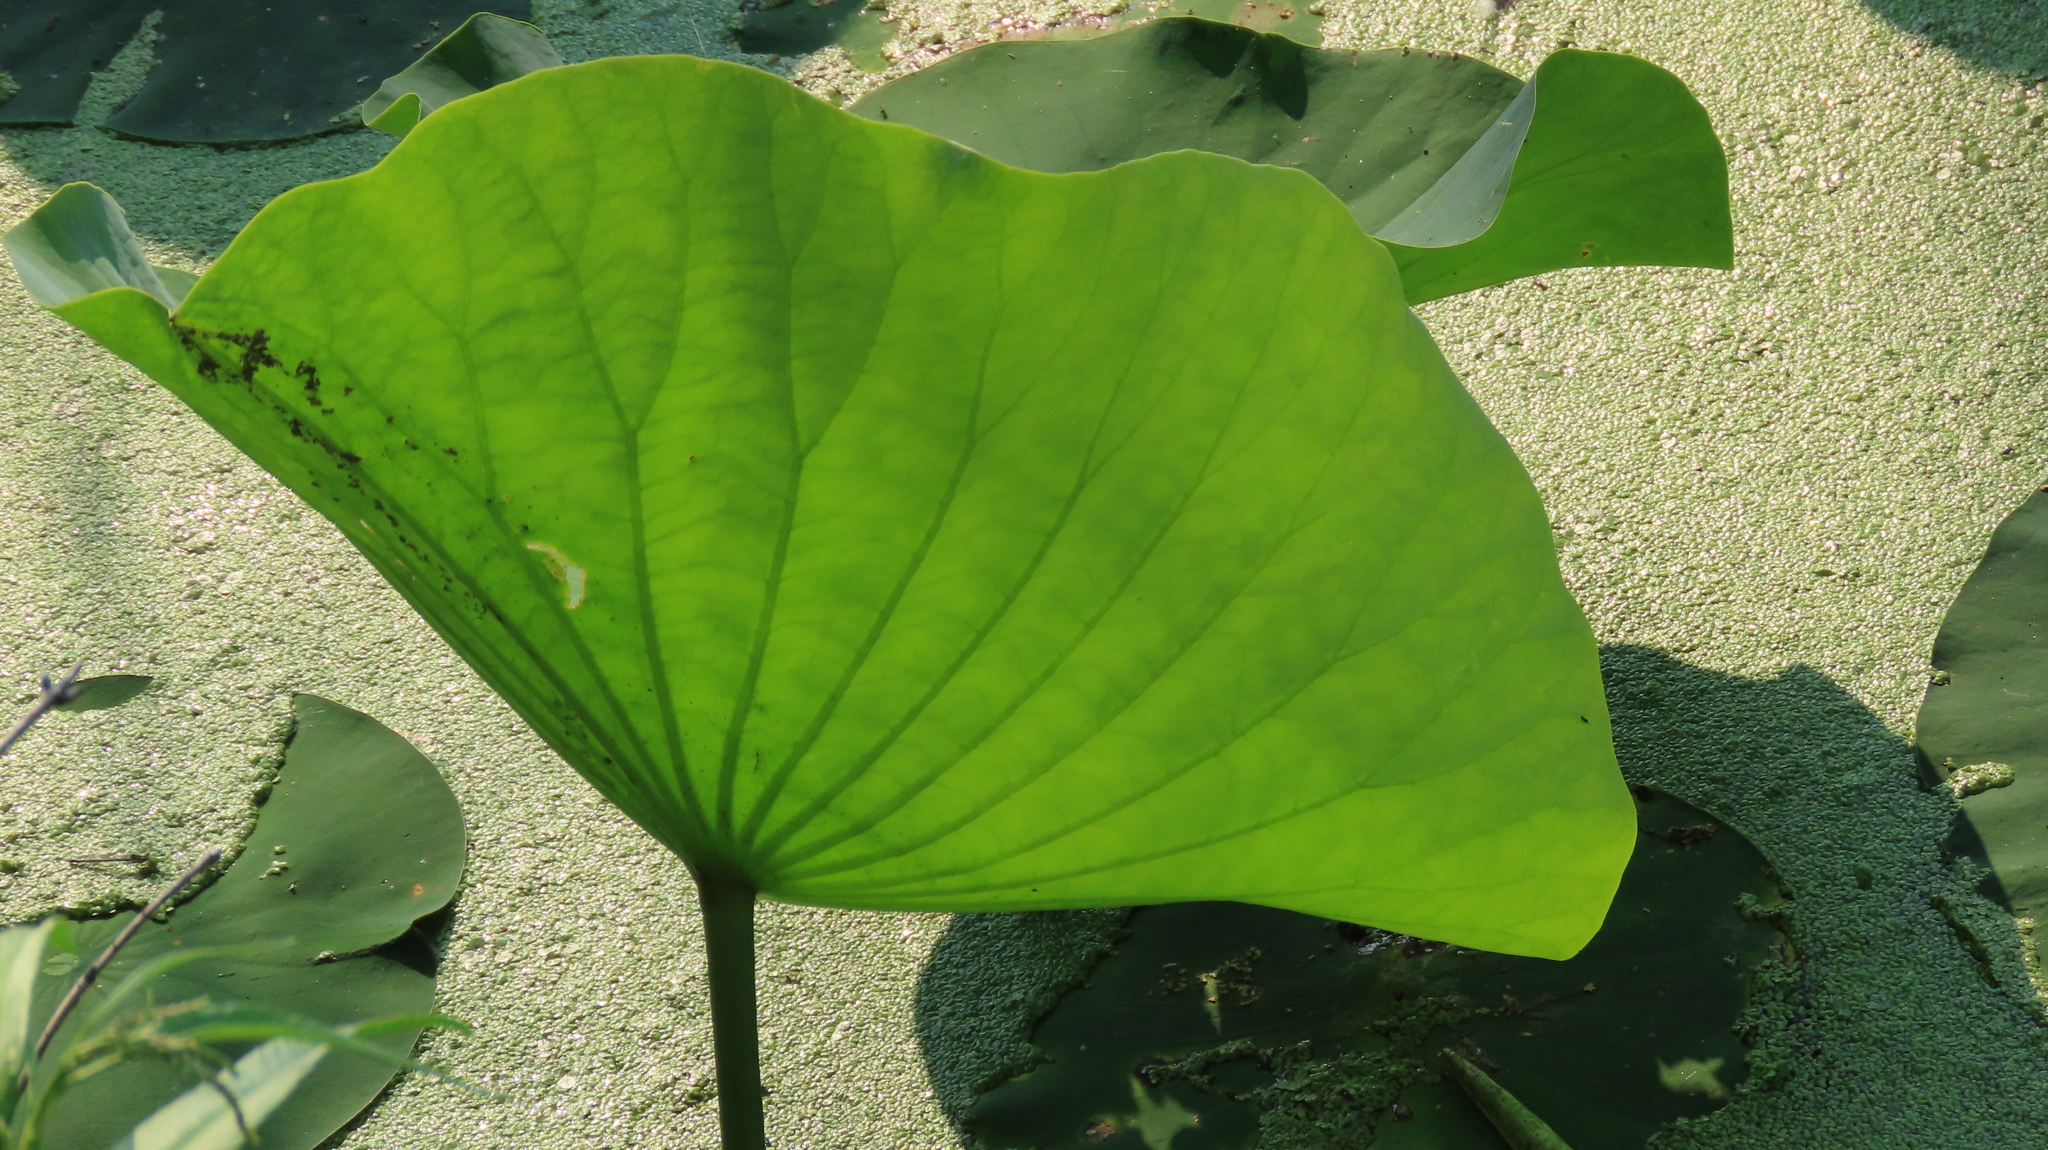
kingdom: Plantae
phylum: Tracheophyta
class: Magnoliopsida
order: Proteales
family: Nelumbonaceae
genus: Nelumbo
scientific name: Nelumbo lutea
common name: American lotus
